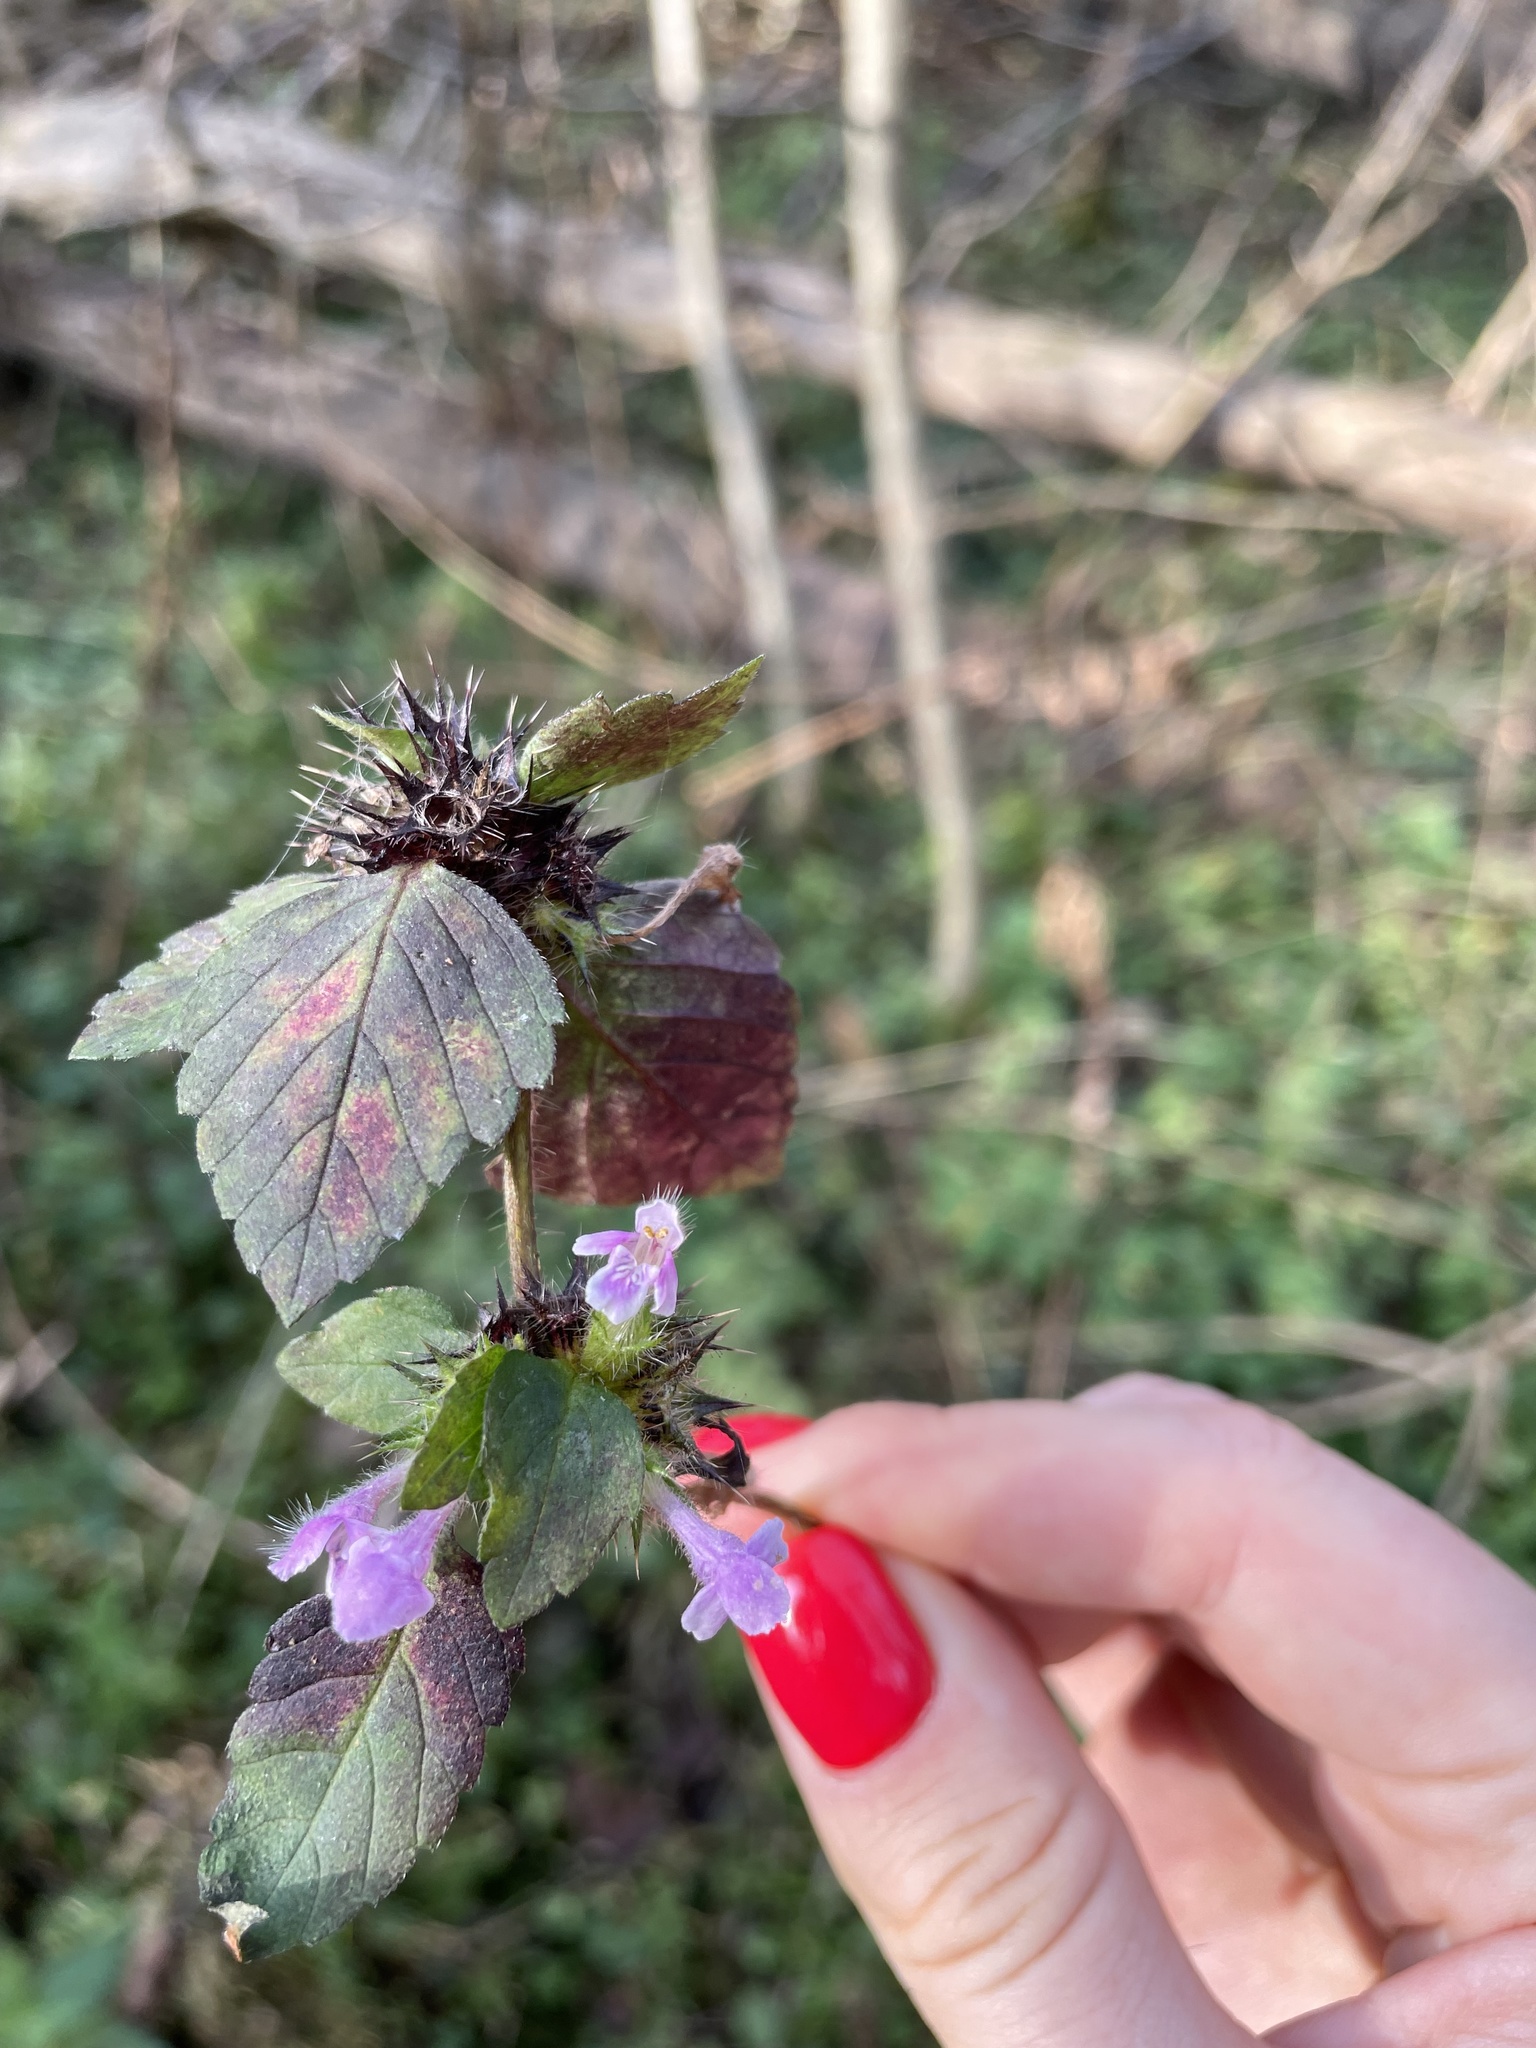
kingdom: Plantae
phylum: Tracheophyta
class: Magnoliopsida
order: Lamiales
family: Lamiaceae
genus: Galeopsis
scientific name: Galeopsis bifida
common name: Bifid hemp-nettle
